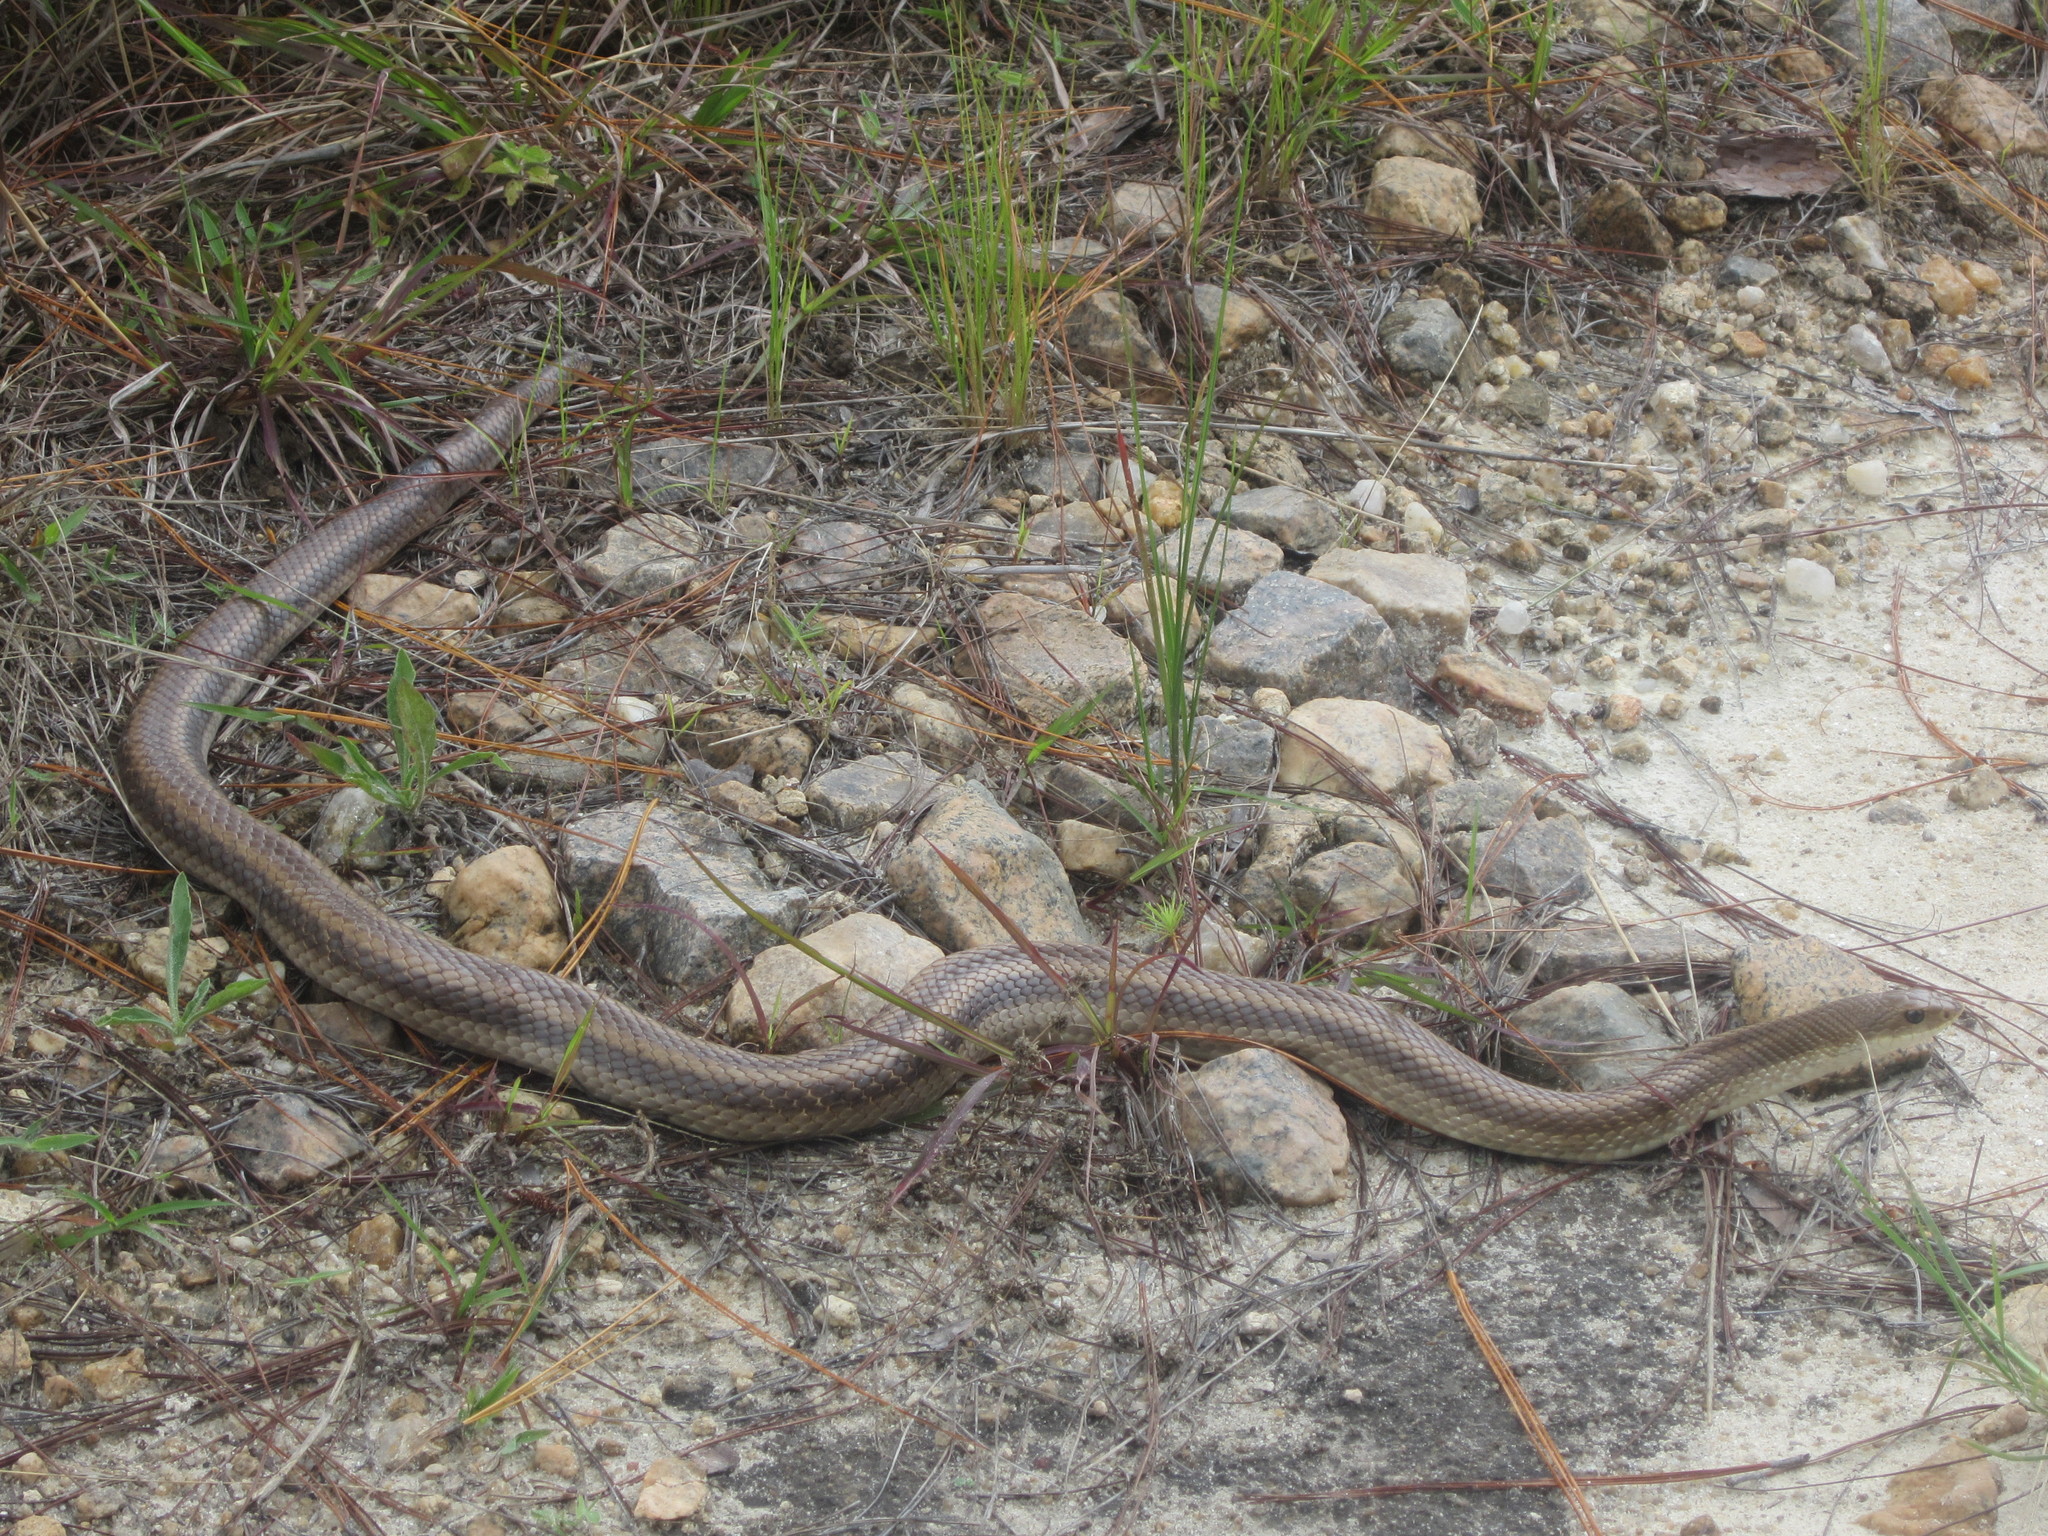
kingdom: Animalia
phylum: Chordata
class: Squamata
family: Pseudoxyrhophiidae
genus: Leioheterodon
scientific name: Leioheterodon modestus
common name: Blonde hognose snake
